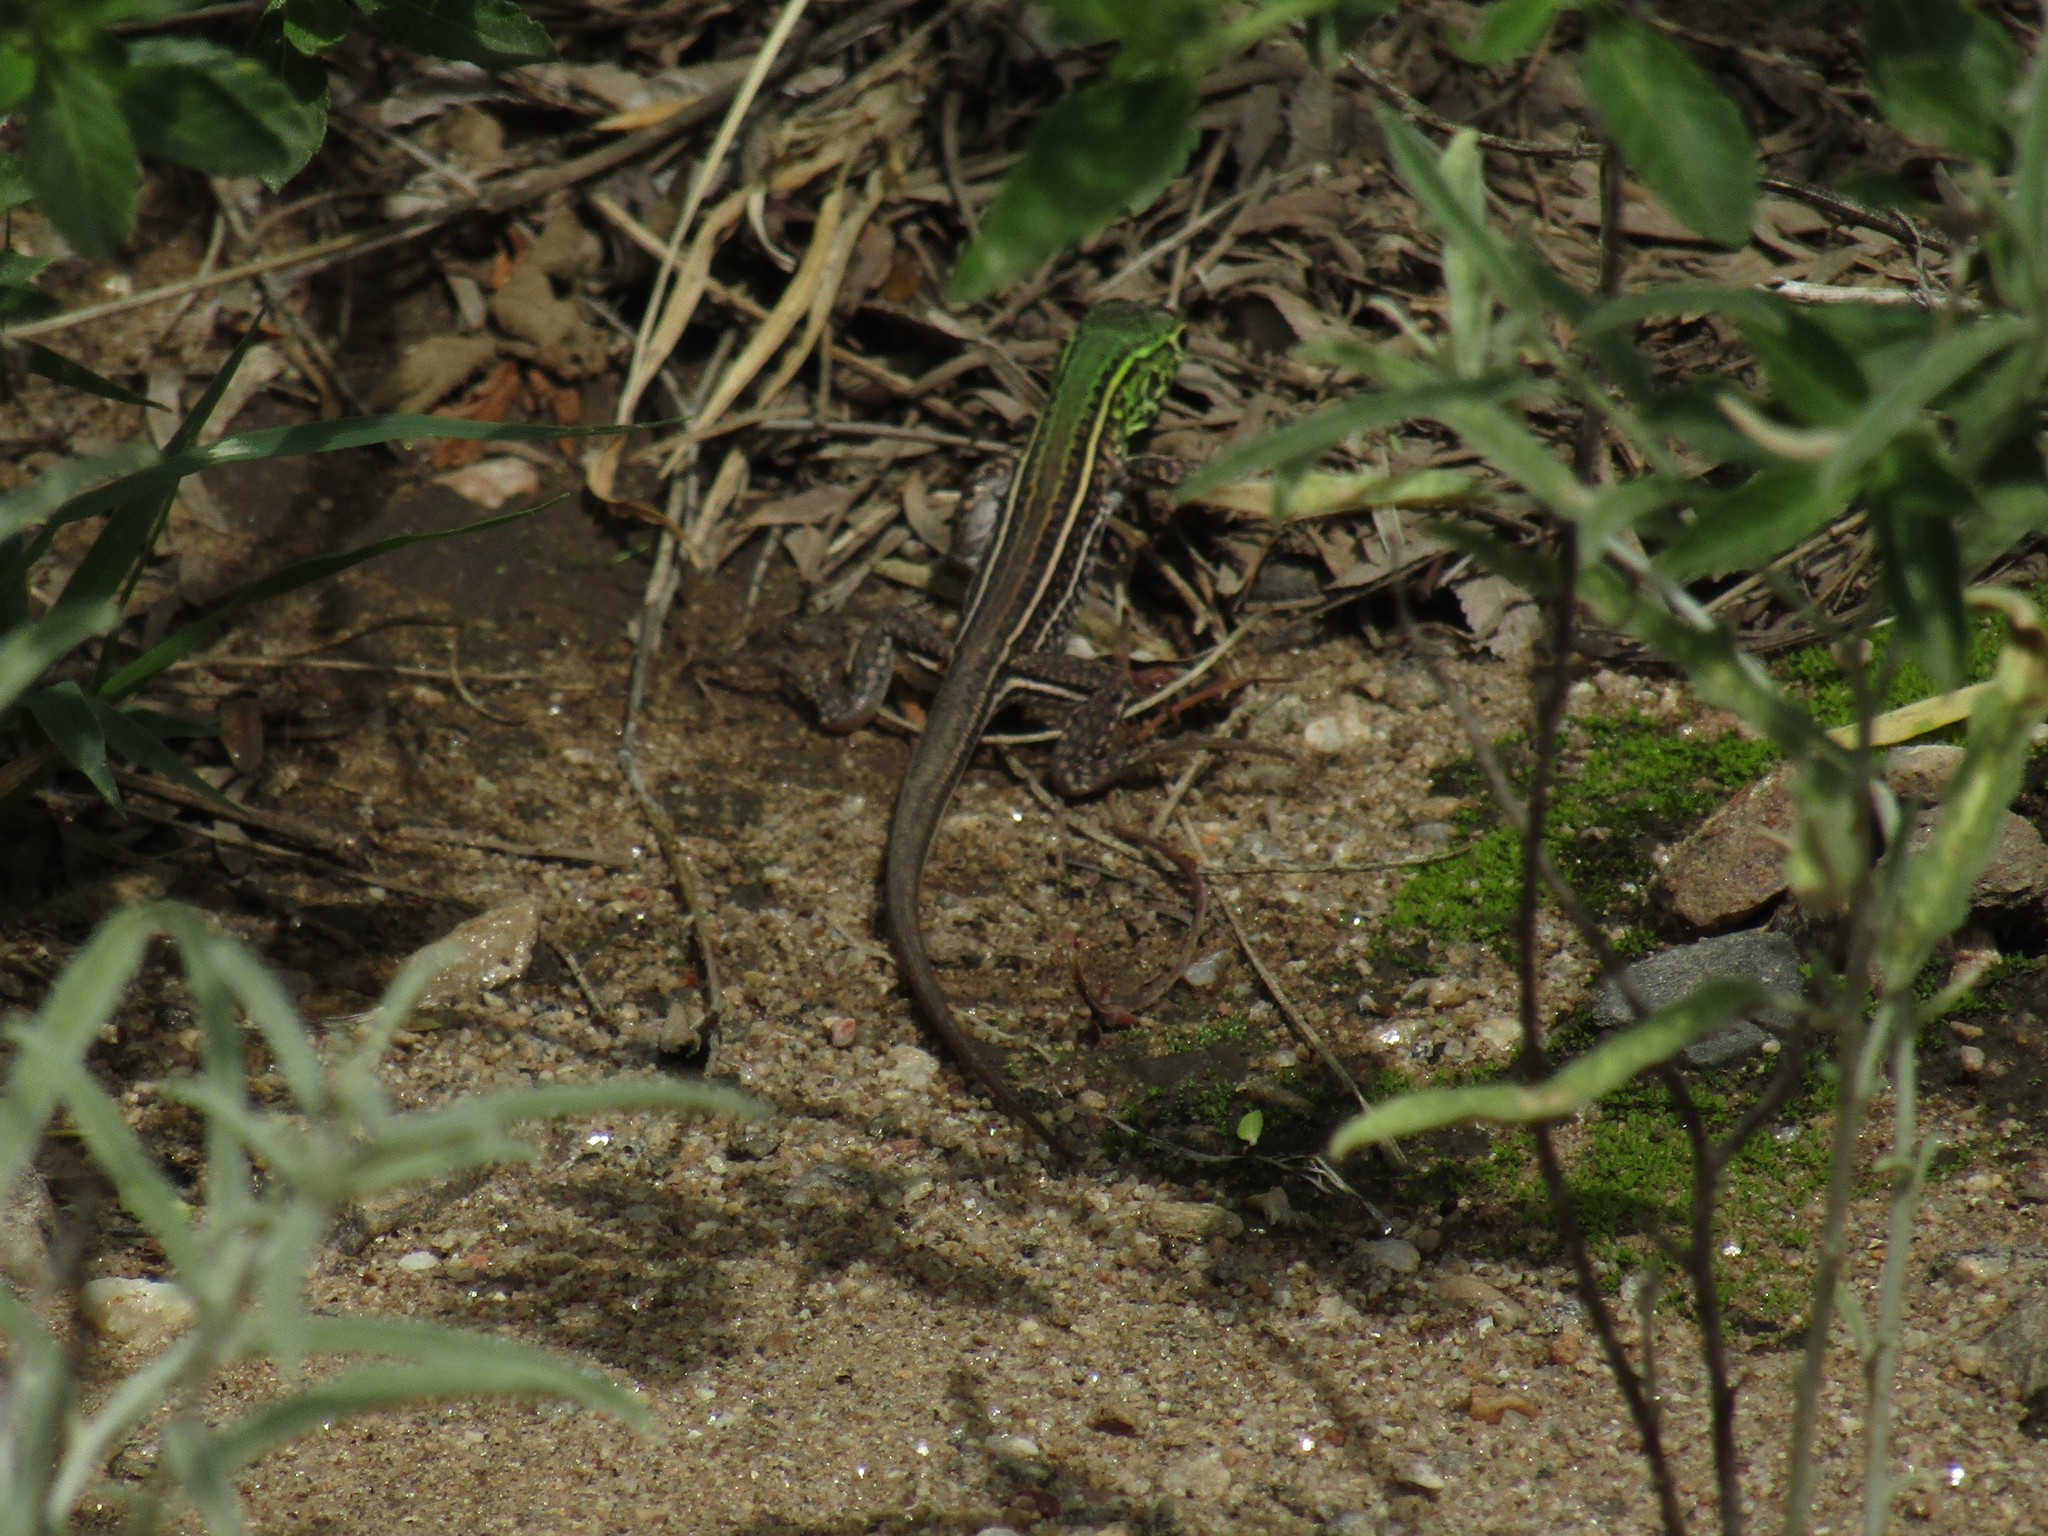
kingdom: Animalia
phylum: Chordata
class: Squamata
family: Teiidae
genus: Teius
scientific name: Teius teyou
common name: Four-toed tegu
